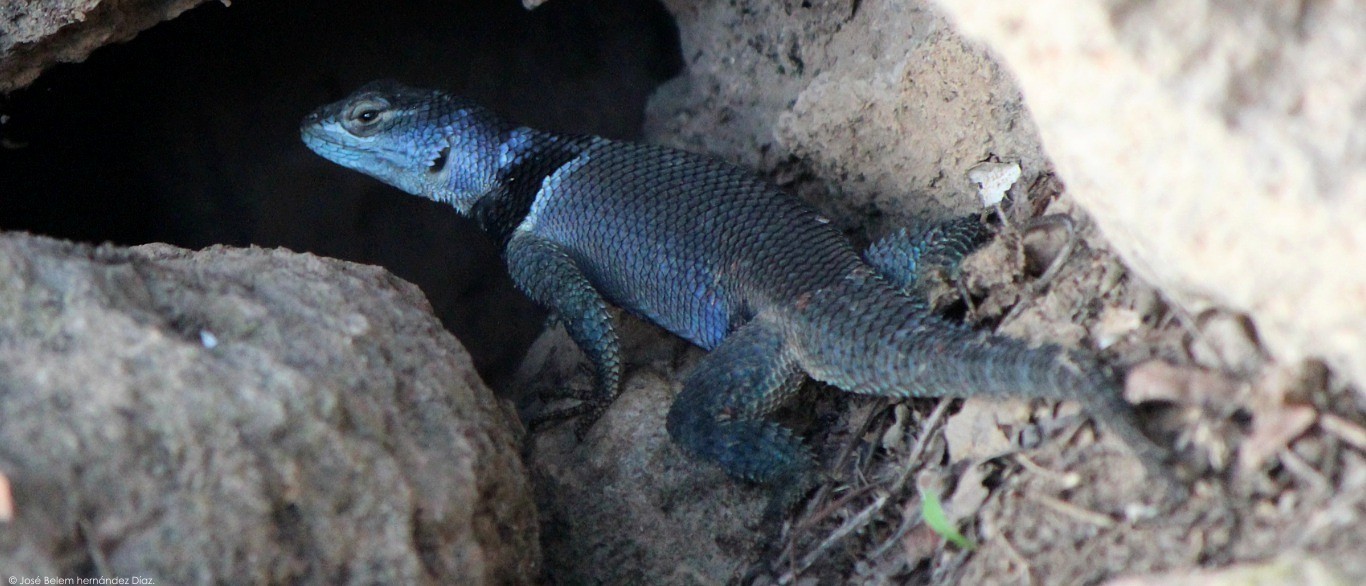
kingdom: Animalia
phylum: Chordata
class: Squamata
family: Phrynosomatidae
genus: Sceloporus
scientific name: Sceloporus minor
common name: Minor lizard
